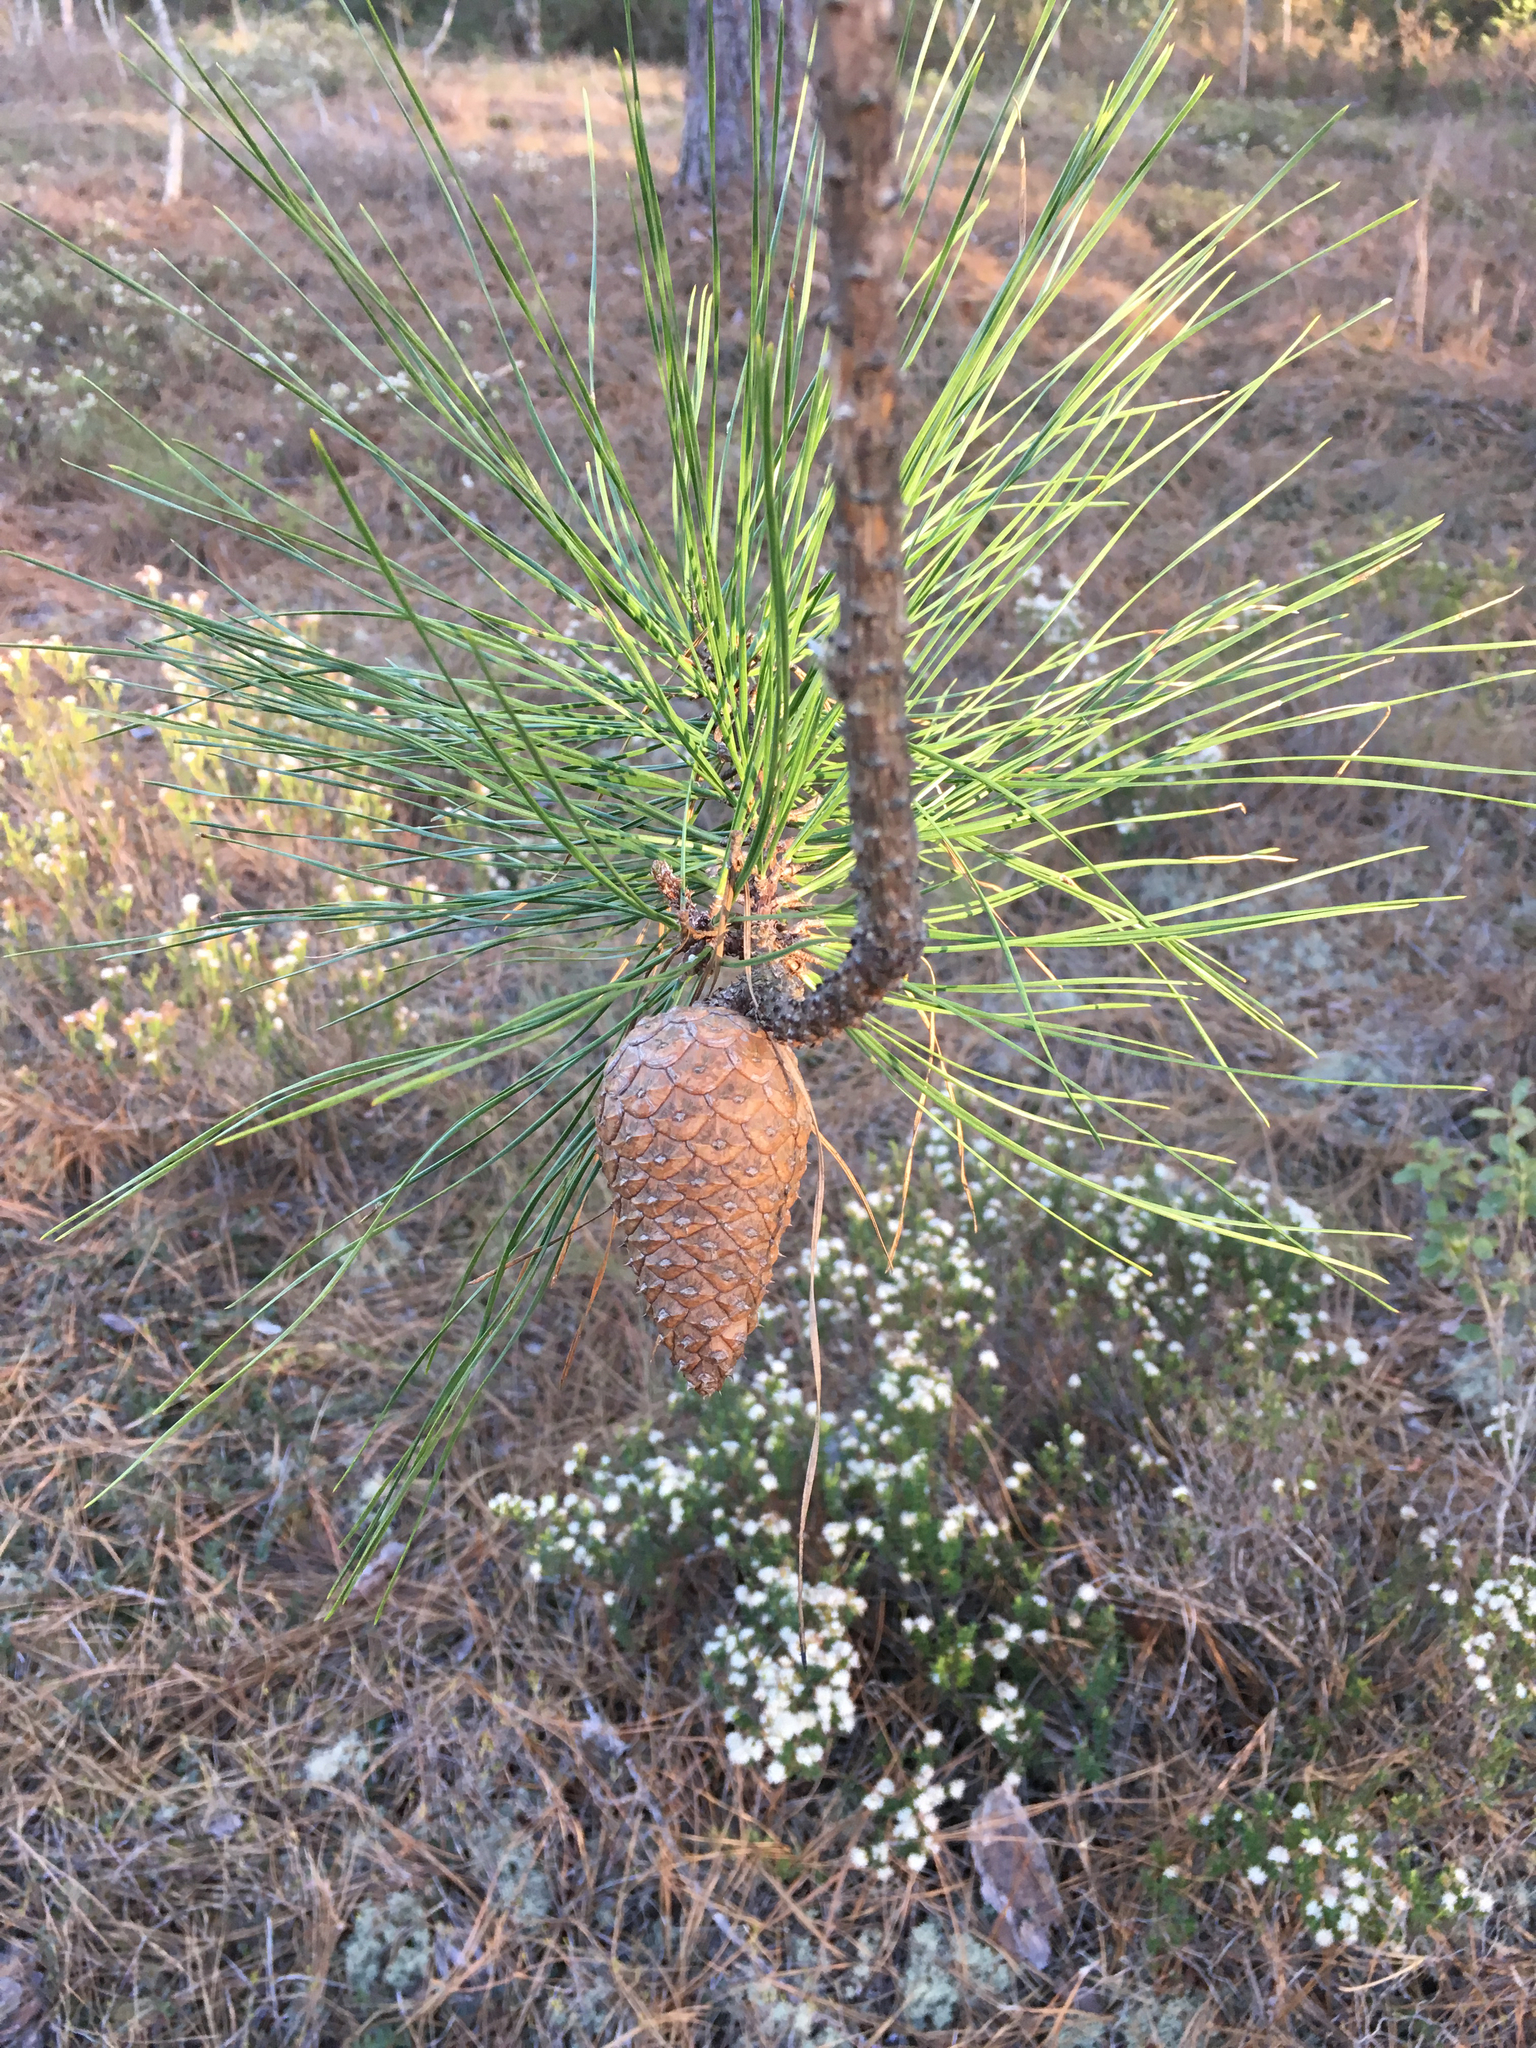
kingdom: Plantae
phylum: Tracheophyta
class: Pinopsida
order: Pinales
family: Pinaceae
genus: Pinus
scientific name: Pinus serotina
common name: Marsh pine
